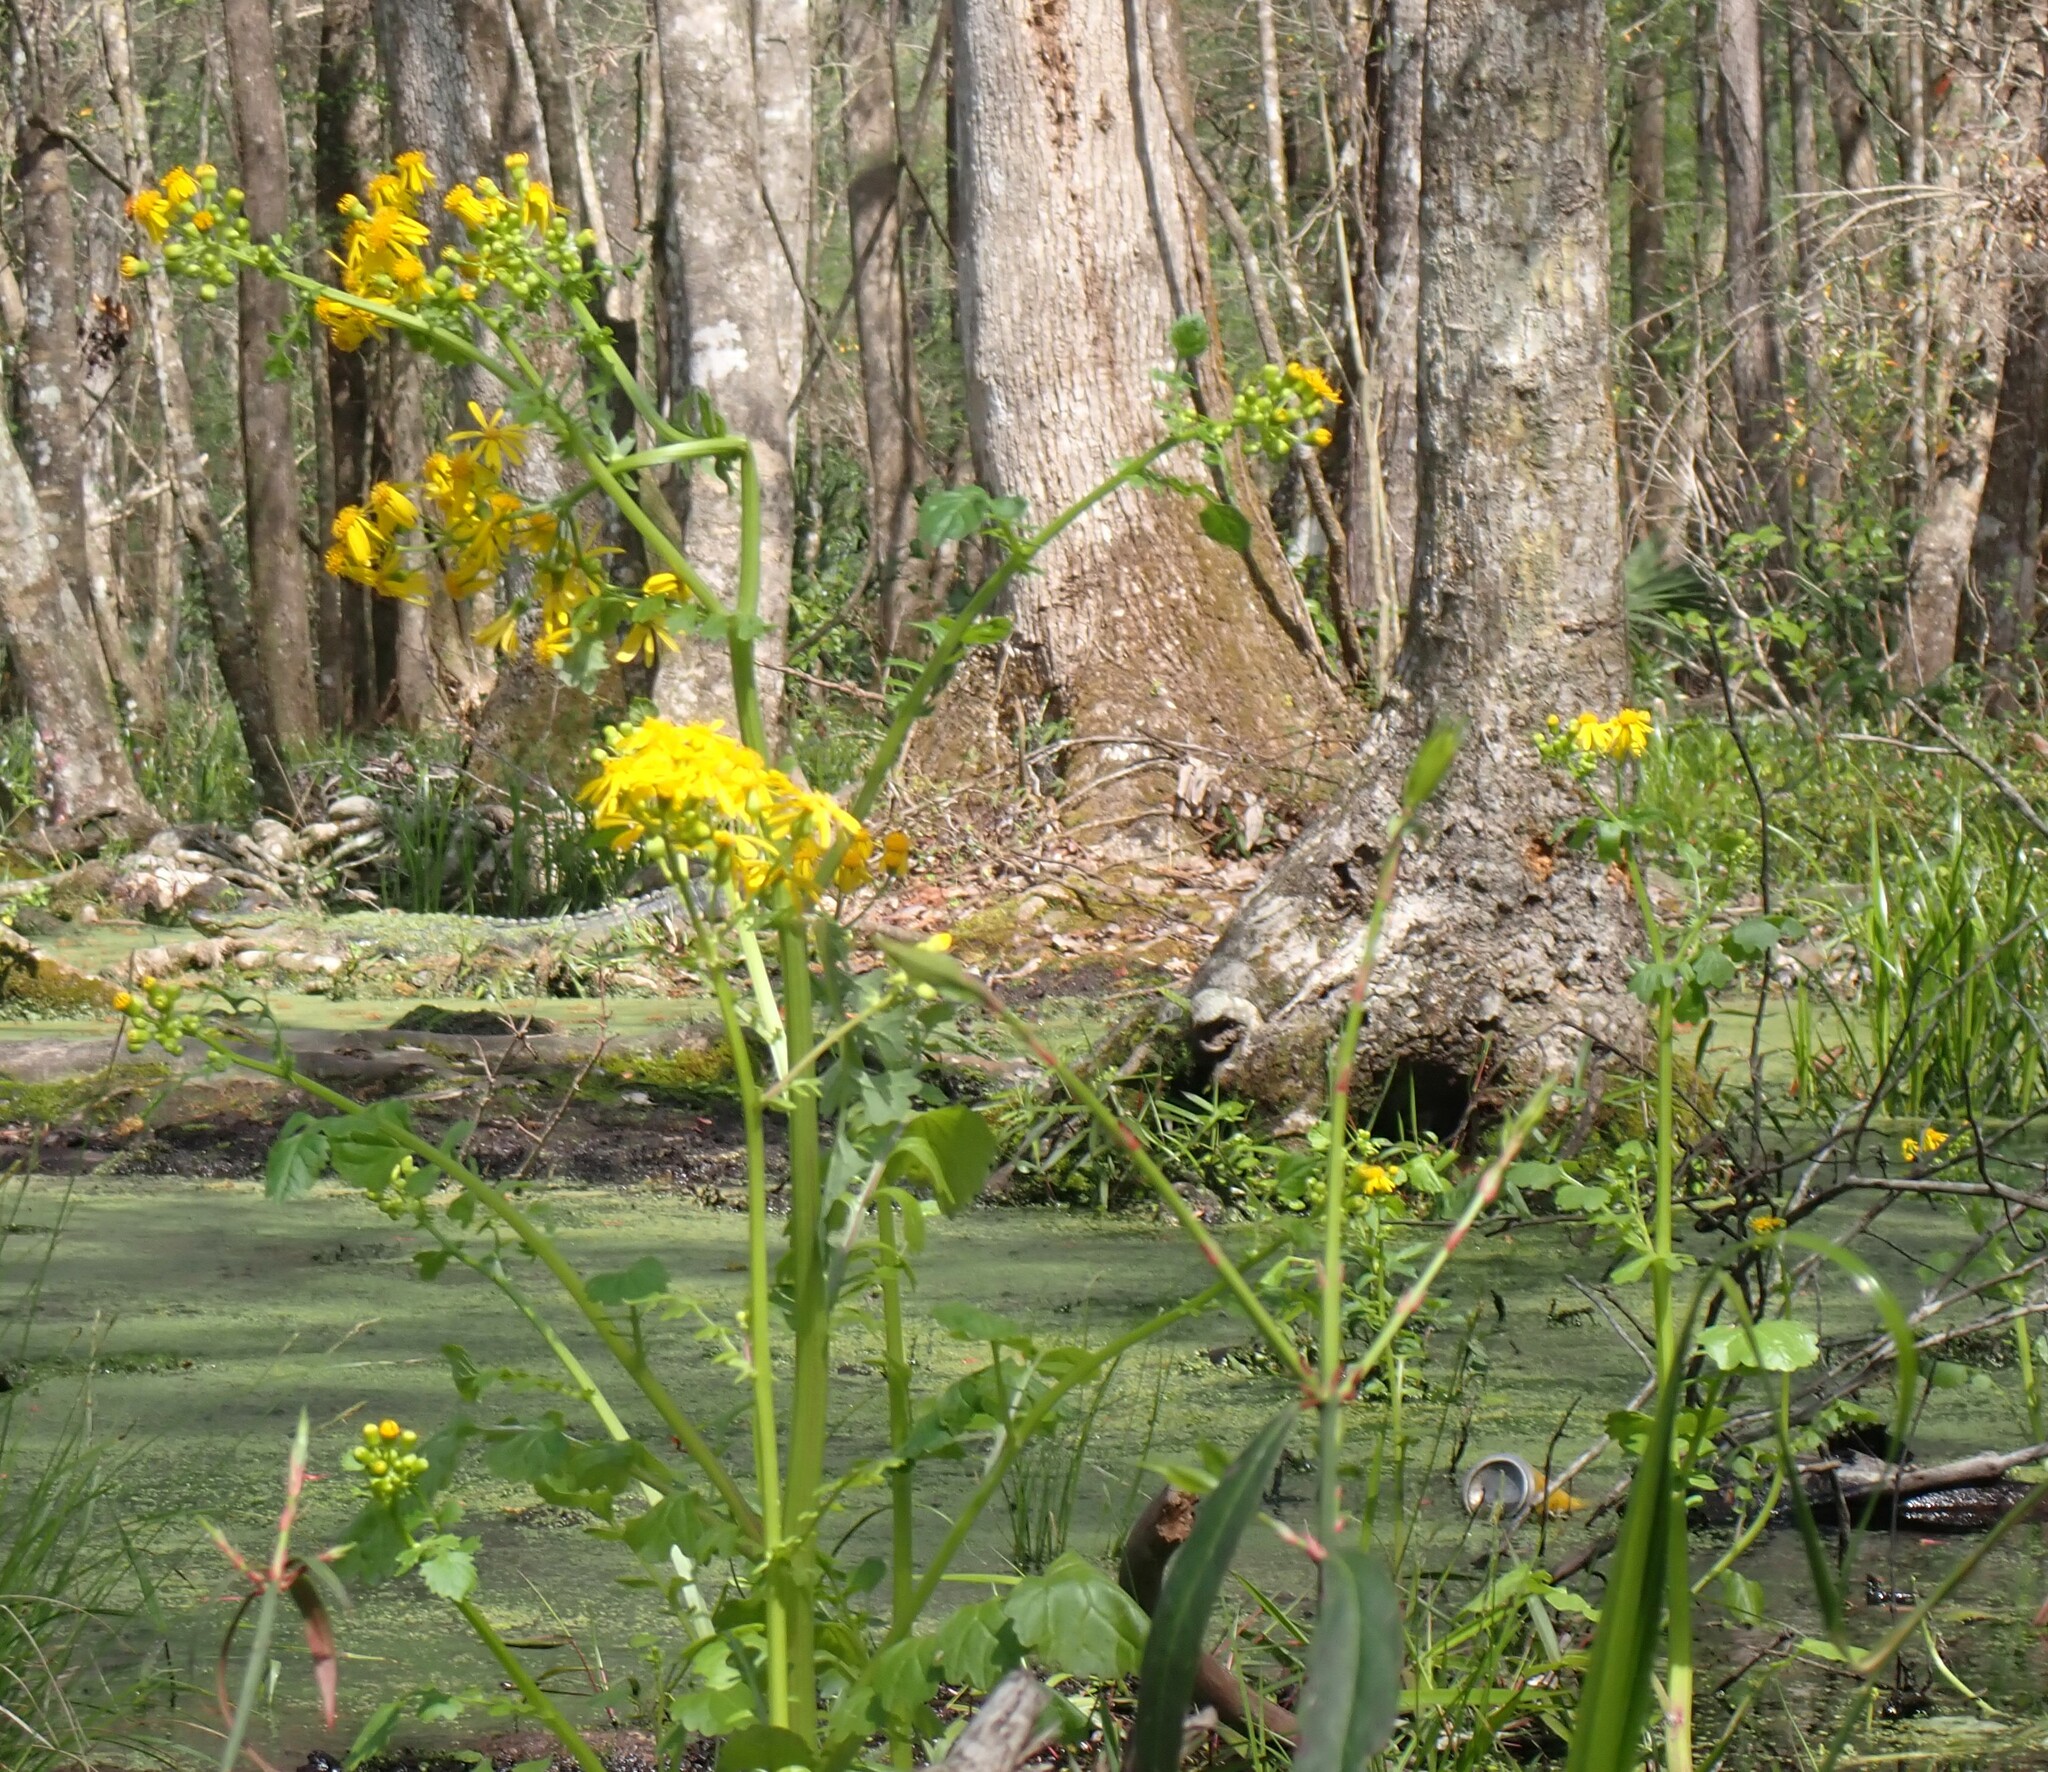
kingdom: Plantae
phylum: Tracheophyta
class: Magnoliopsida
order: Asterales
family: Asteraceae
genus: Packera
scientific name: Packera glabella
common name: Butterweed
